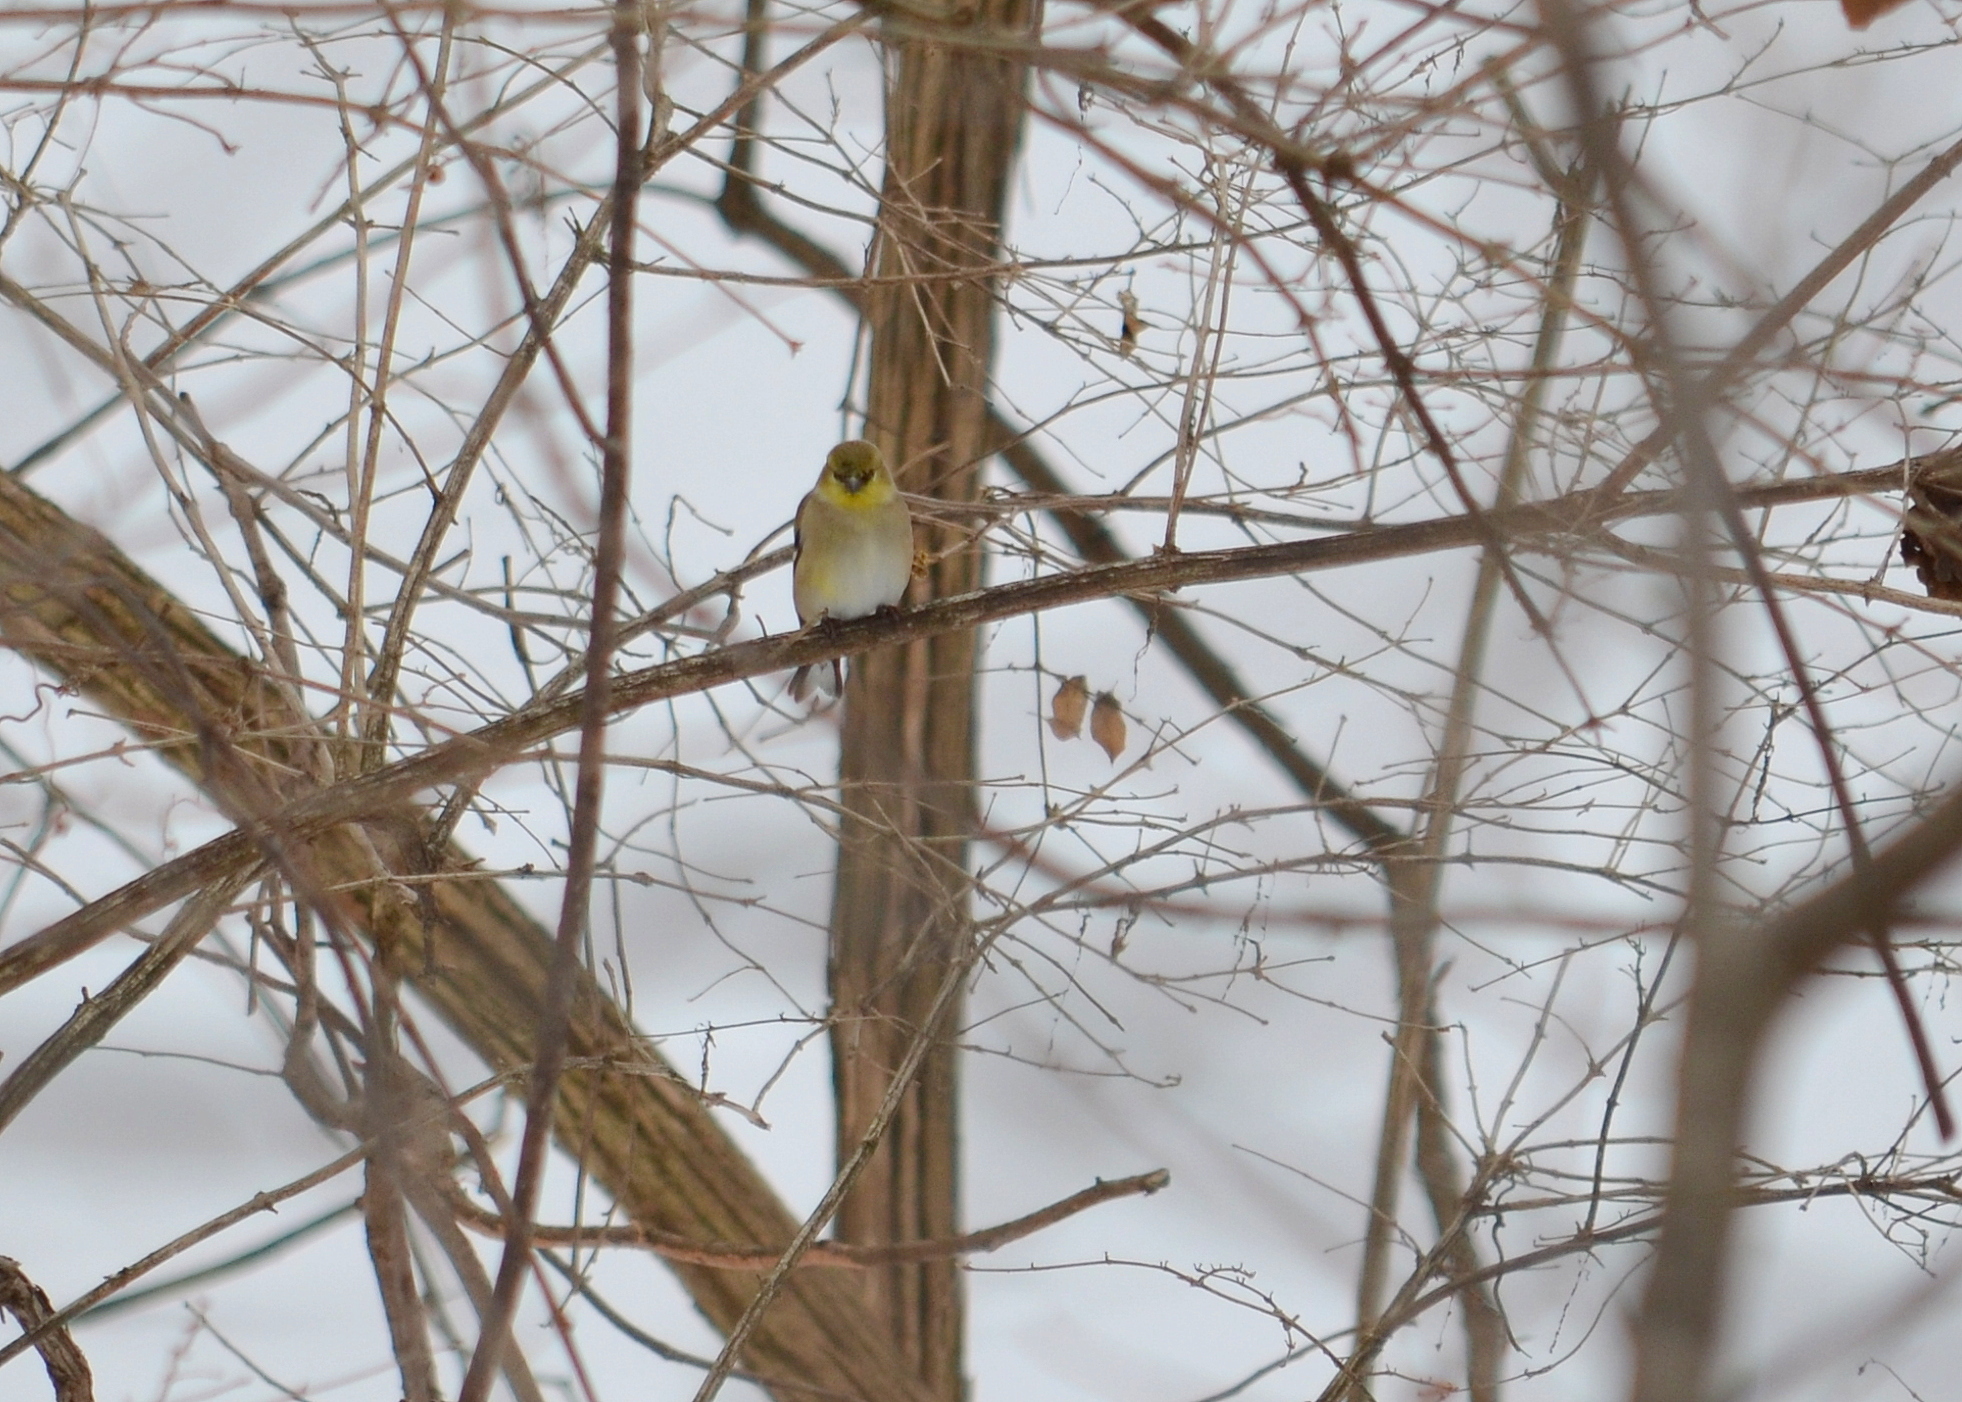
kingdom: Animalia
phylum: Chordata
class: Aves
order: Passeriformes
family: Fringillidae
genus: Spinus
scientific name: Spinus tristis
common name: American goldfinch
